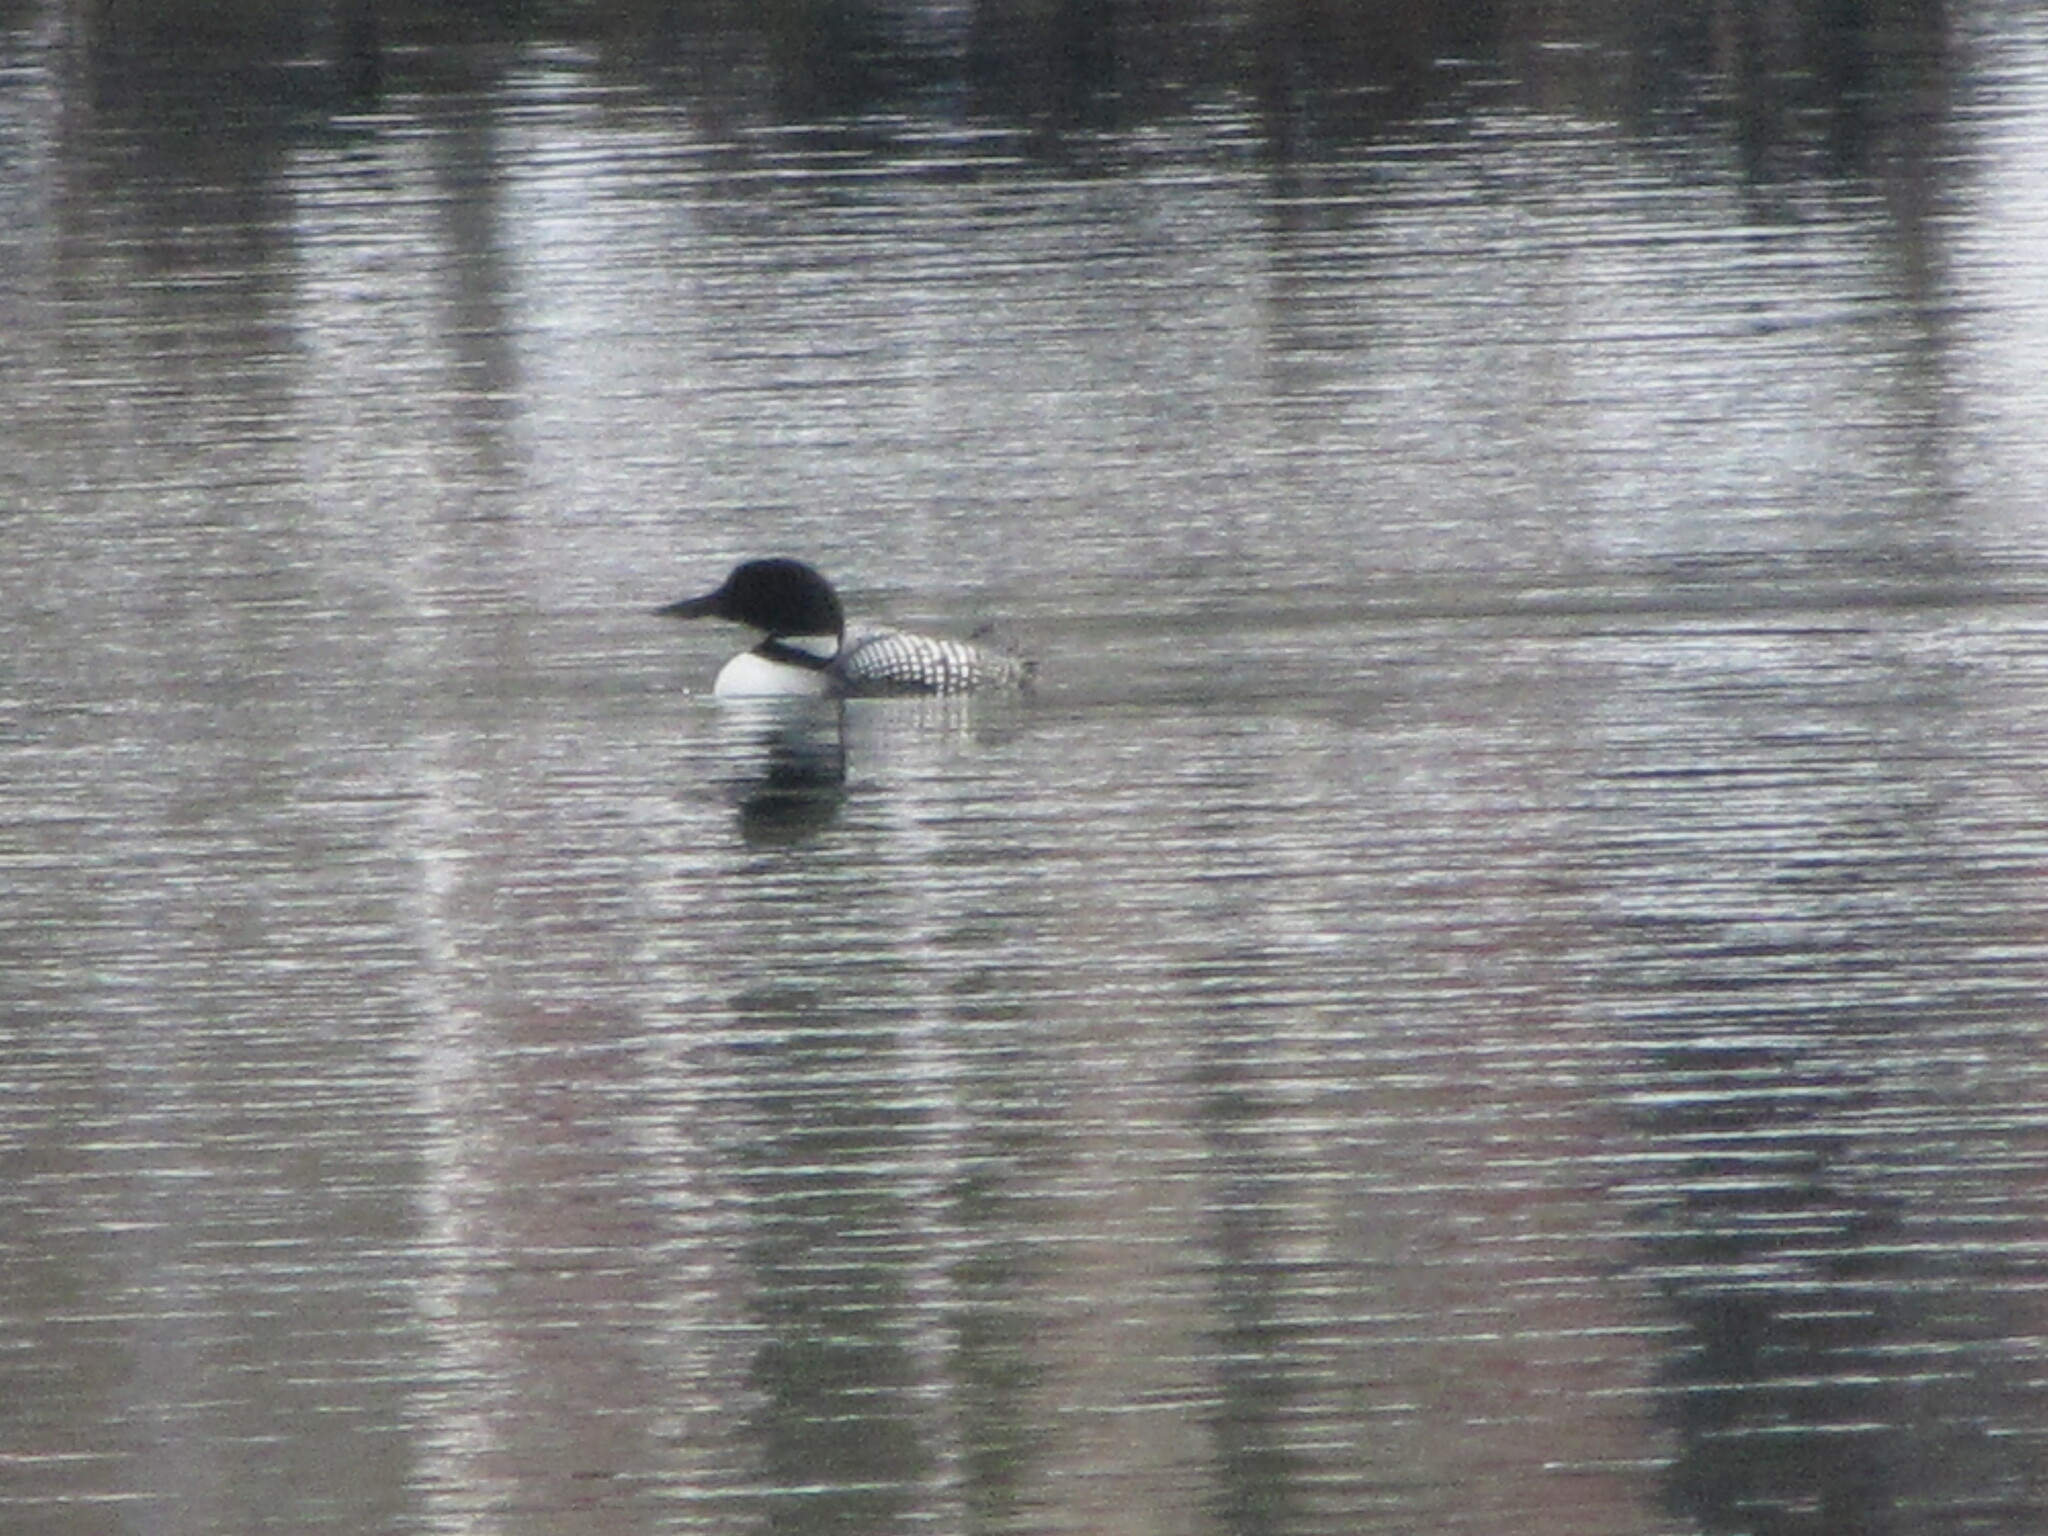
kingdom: Animalia
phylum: Chordata
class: Aves
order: Gaviiformes
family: Gaviidae
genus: Gavia
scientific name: Gavia immer
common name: Common loon
